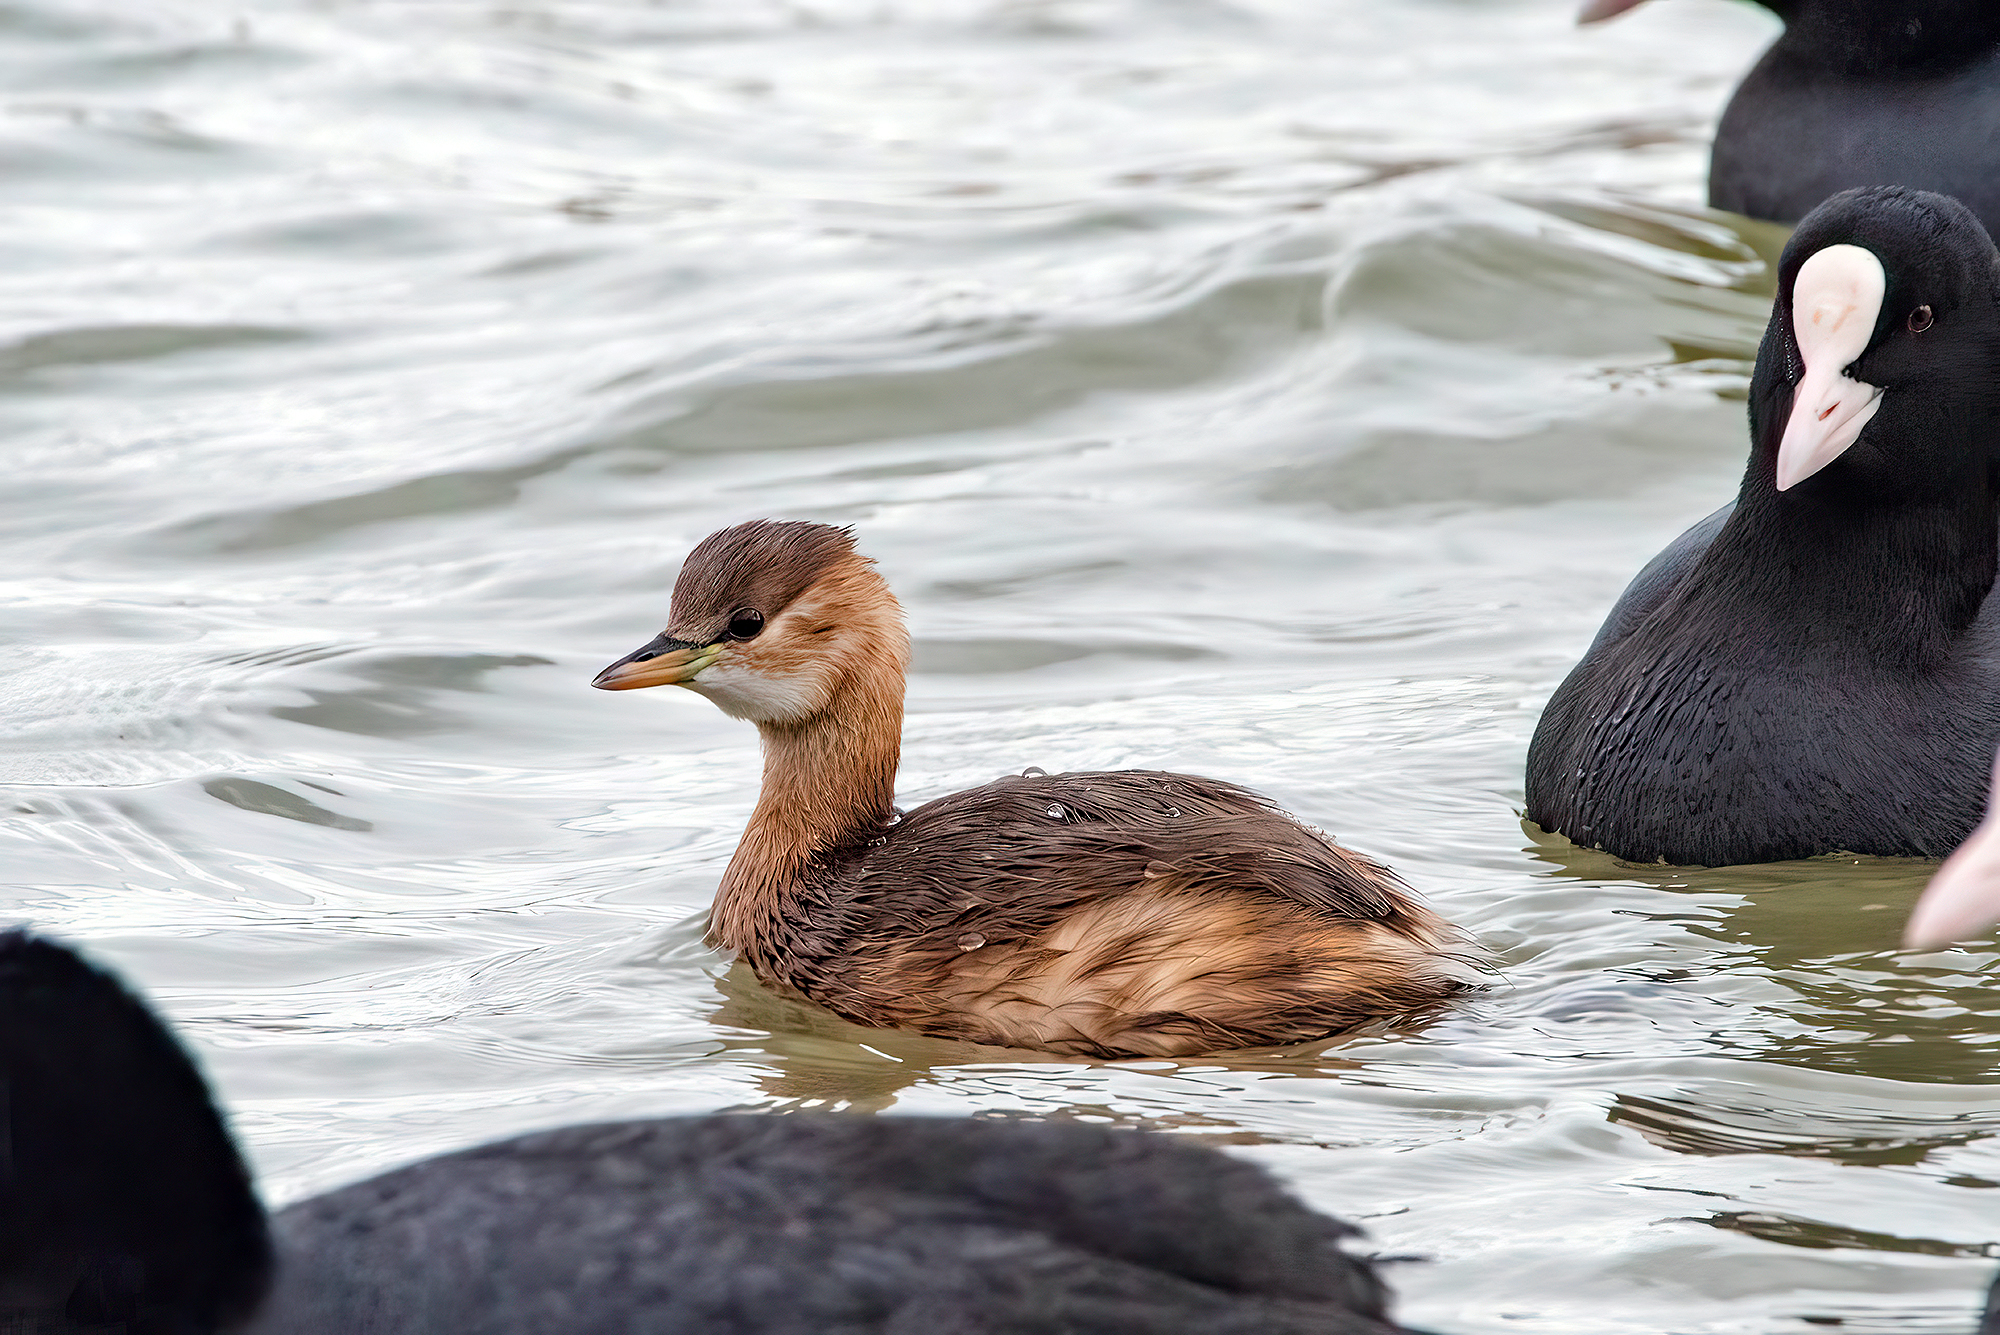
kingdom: Animalia
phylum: Chordata
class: Aves
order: Podicipediformes
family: Podicipedidae
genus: Tachybaptus
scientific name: Tachybaptus ruficollis
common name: Little grebe
